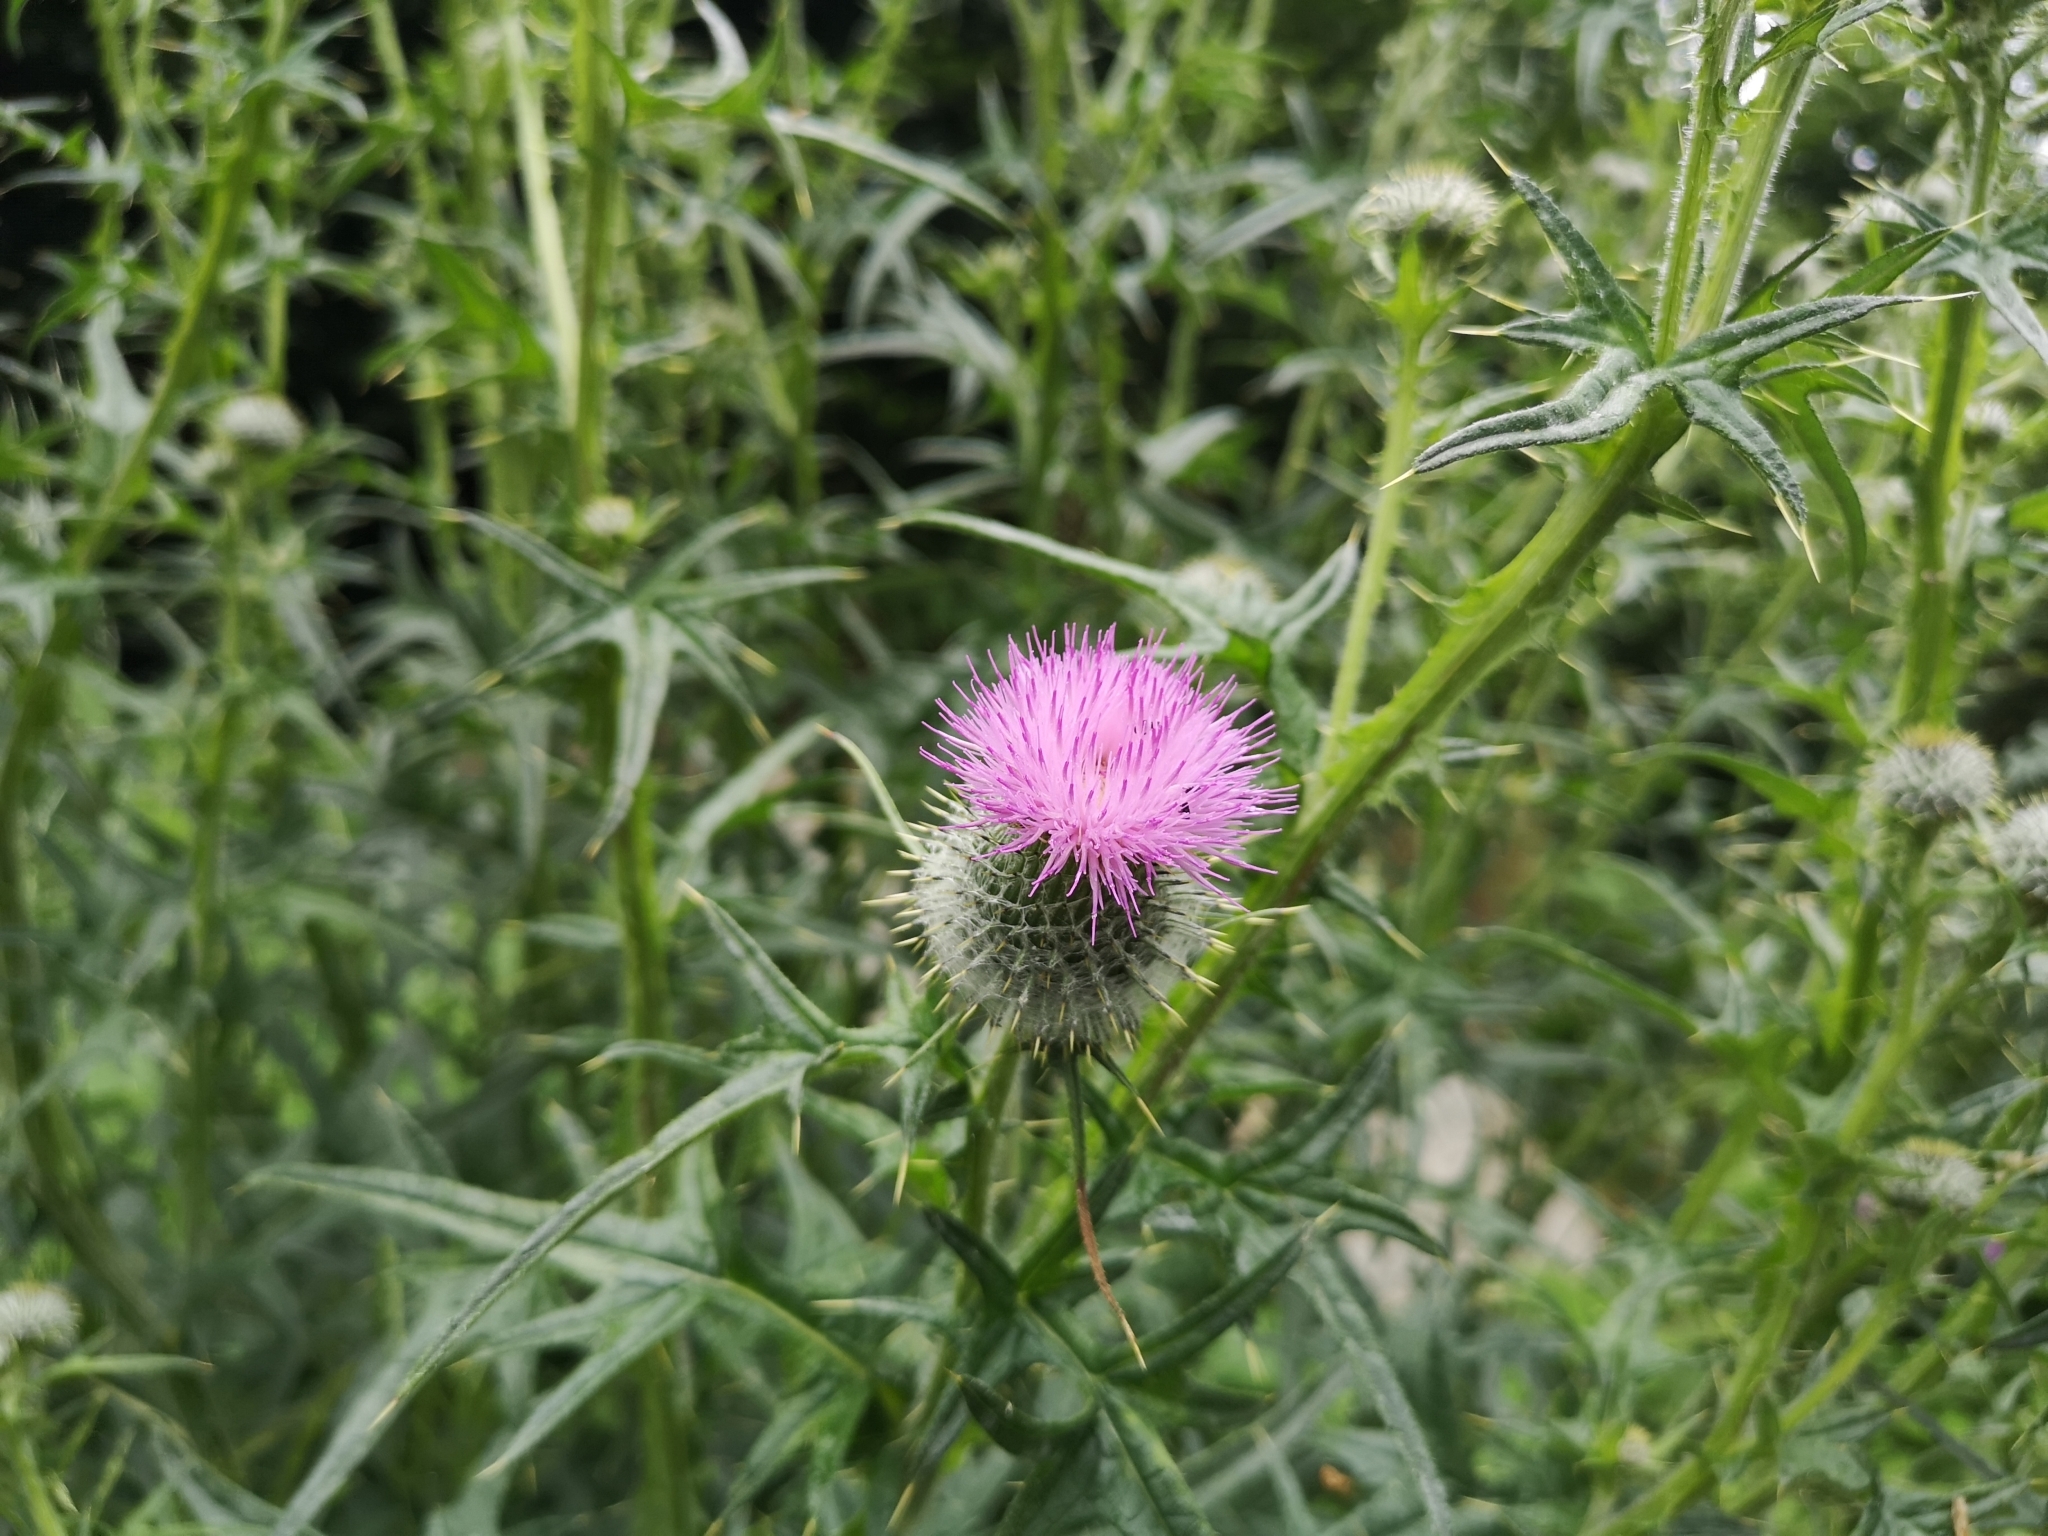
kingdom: Plantae
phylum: Tracheophyta
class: Magnoliopsida
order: Asterales
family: Asteraceae
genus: Cirsium
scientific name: Cirsium vulgare
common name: Bull thistle
